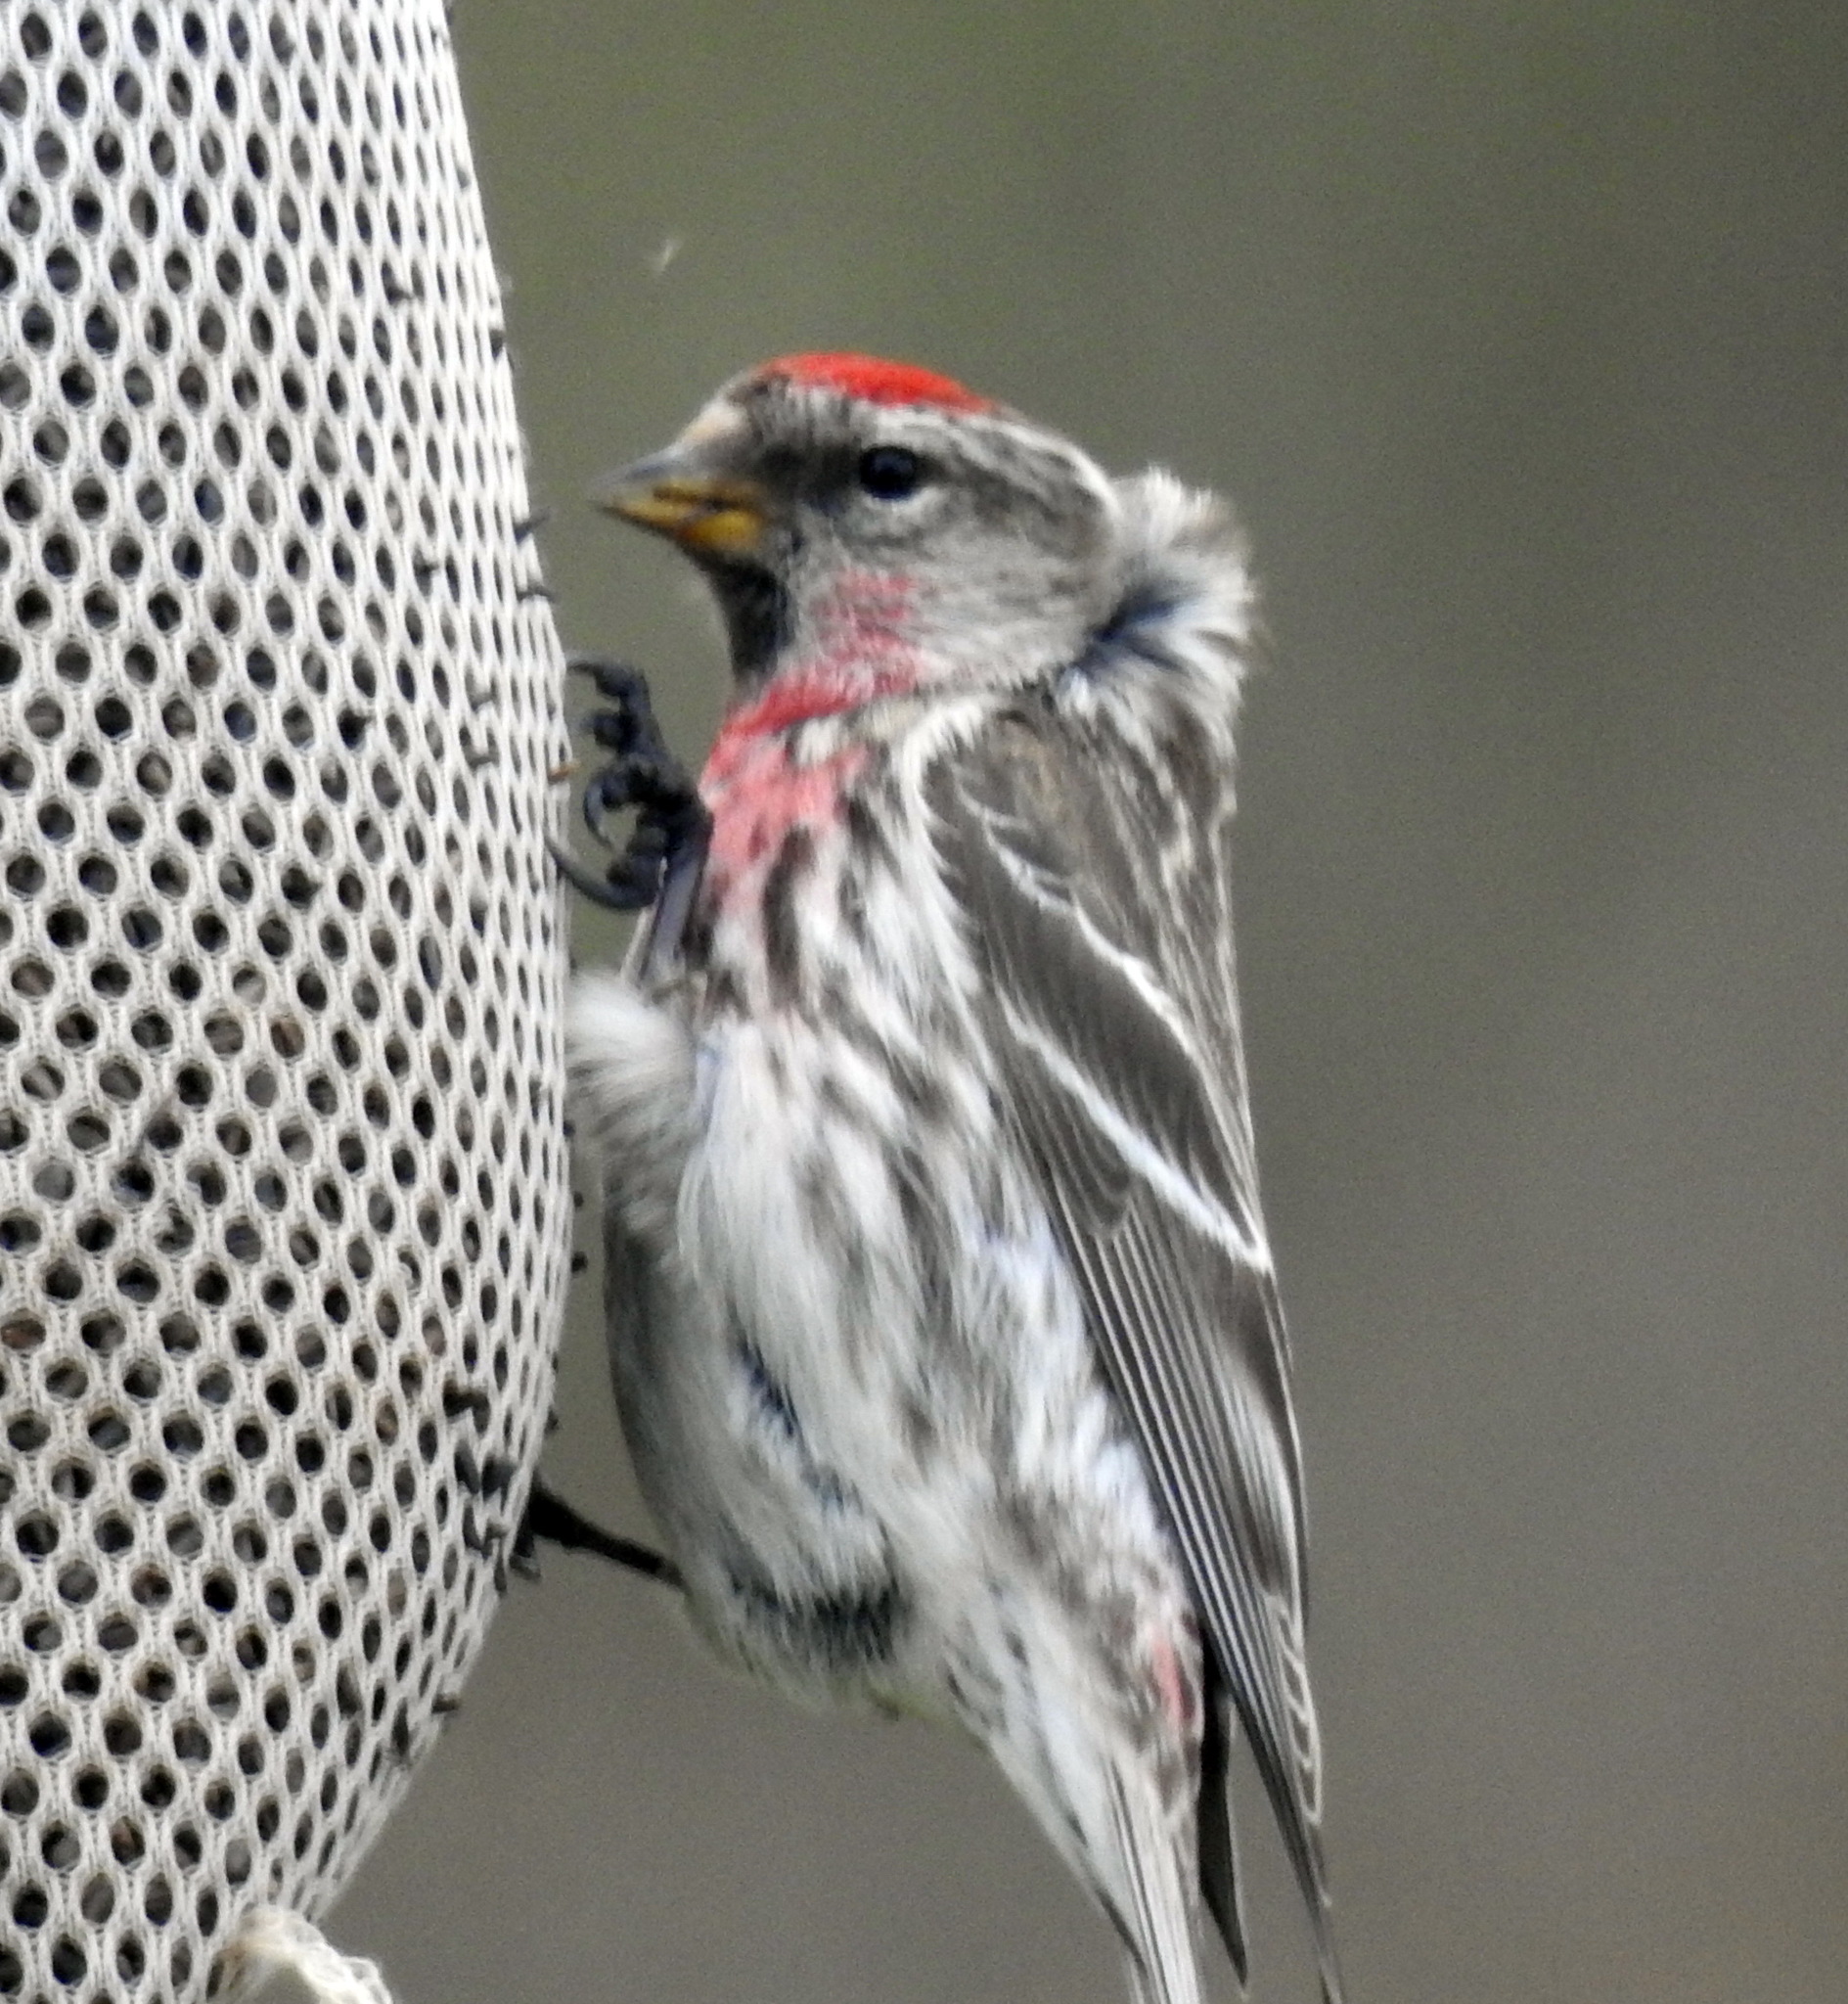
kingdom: Animalia
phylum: Chordata
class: Aves
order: Passeriformes
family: Fringillidae
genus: Acanthis
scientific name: Acanthis flammea
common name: Common redpoll
